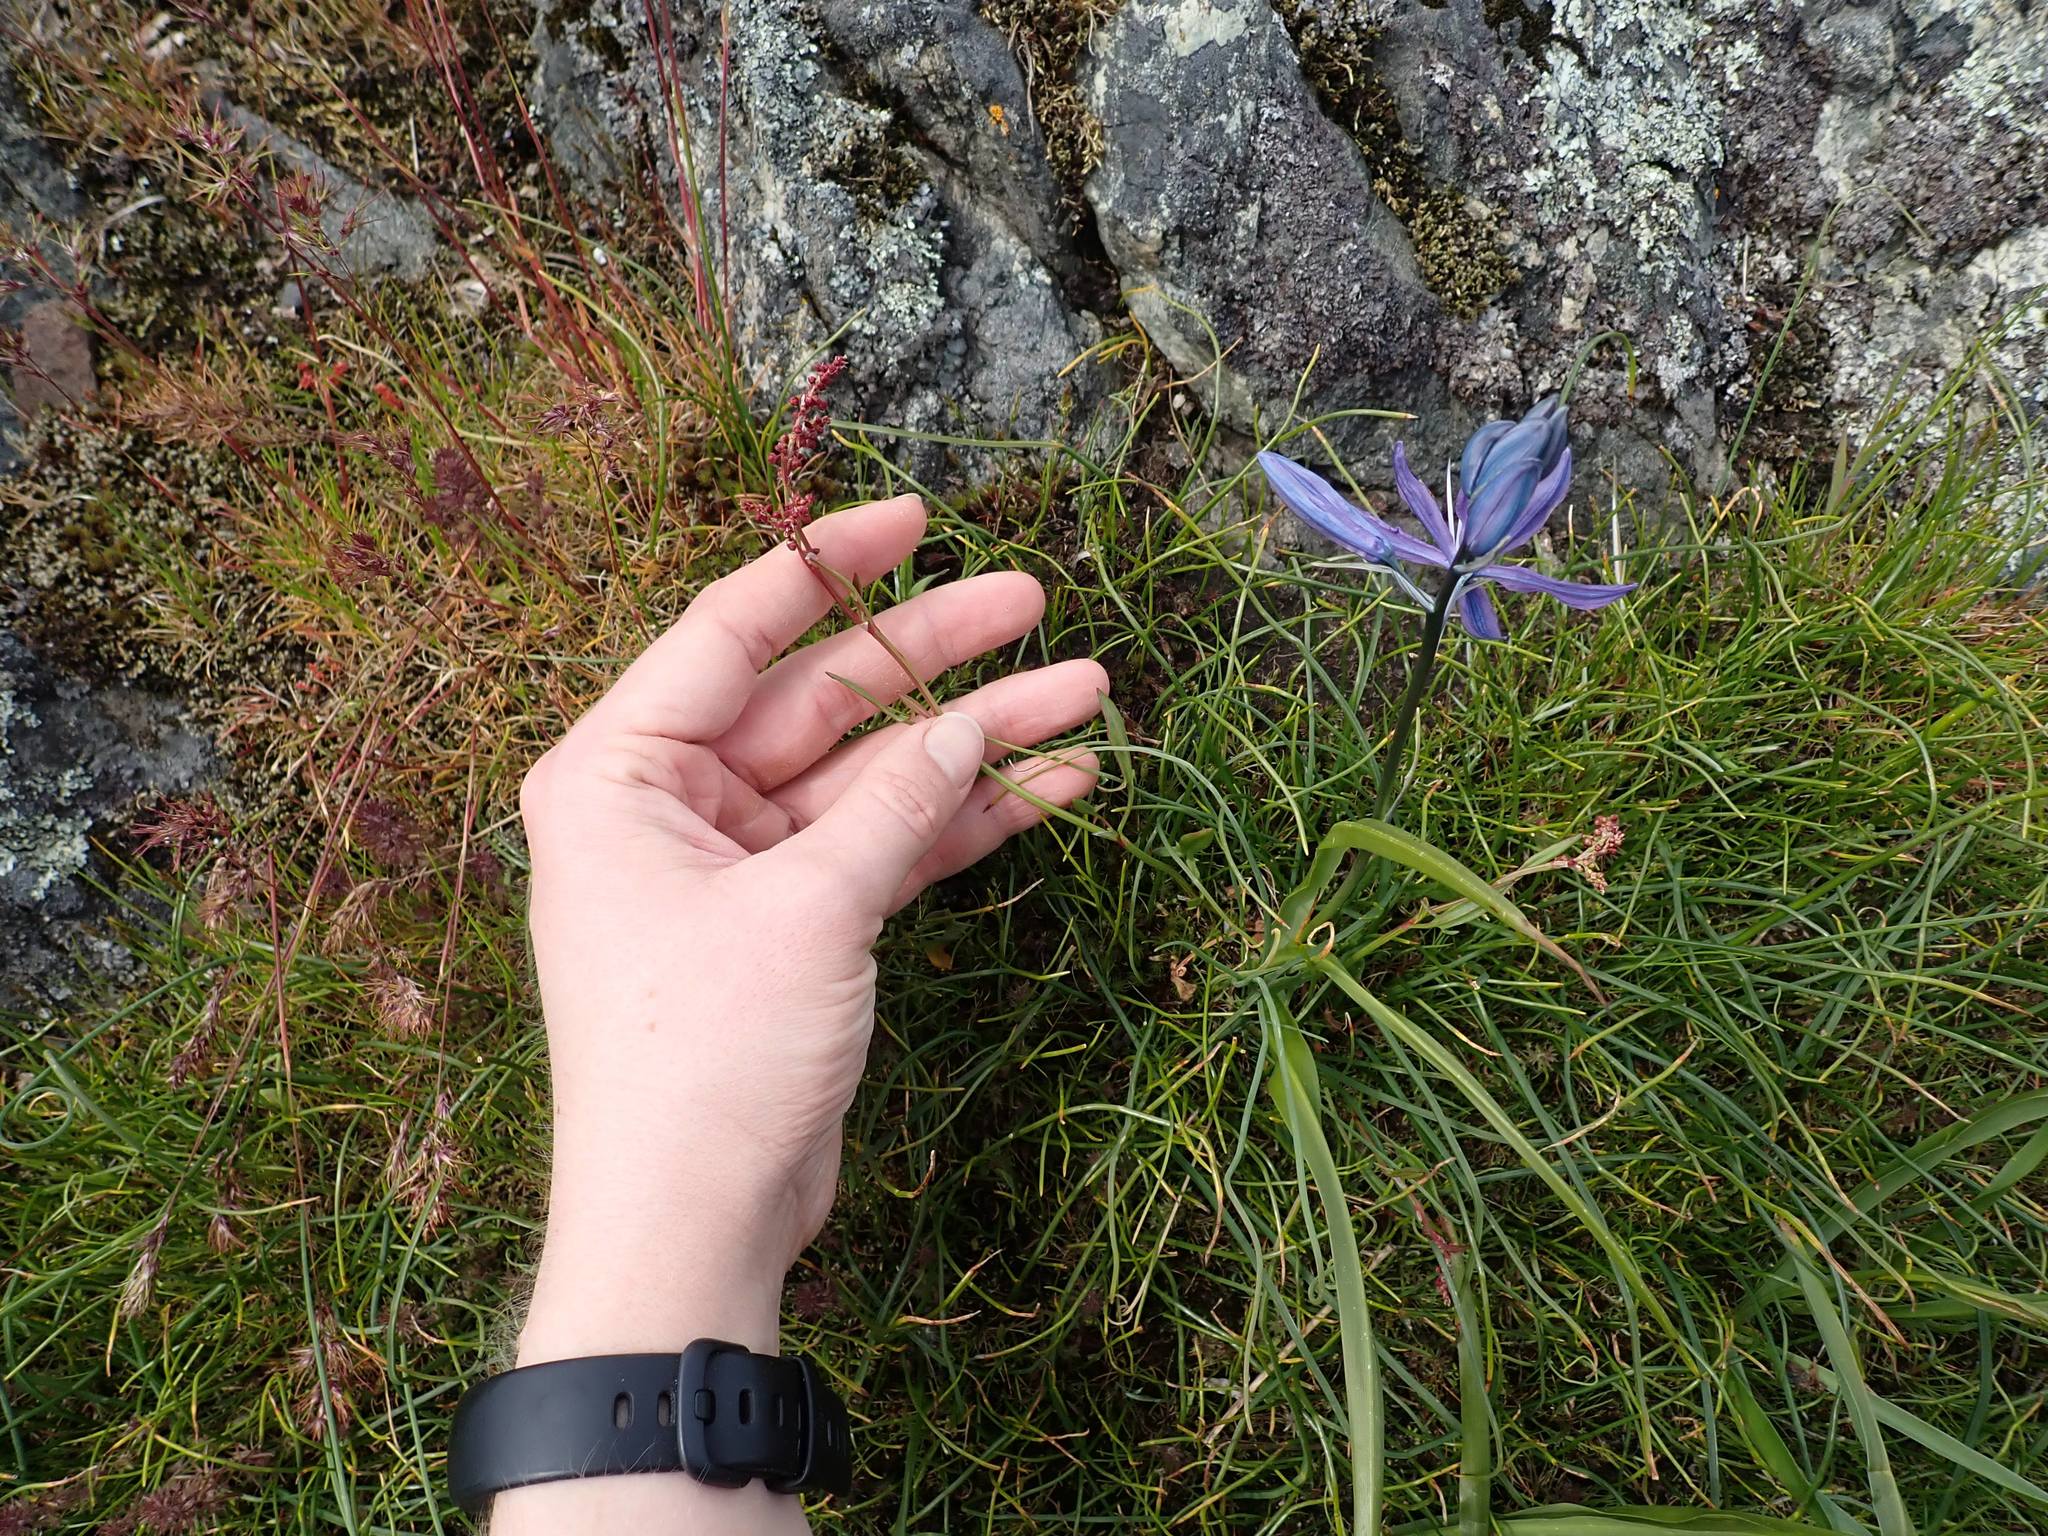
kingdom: Plantae
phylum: Tracheophyta
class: Magnoliopsida
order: Caryophyllales
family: Polygonaceae
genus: Rumex
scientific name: Rumex acetosella
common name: Common sheep sorrel
